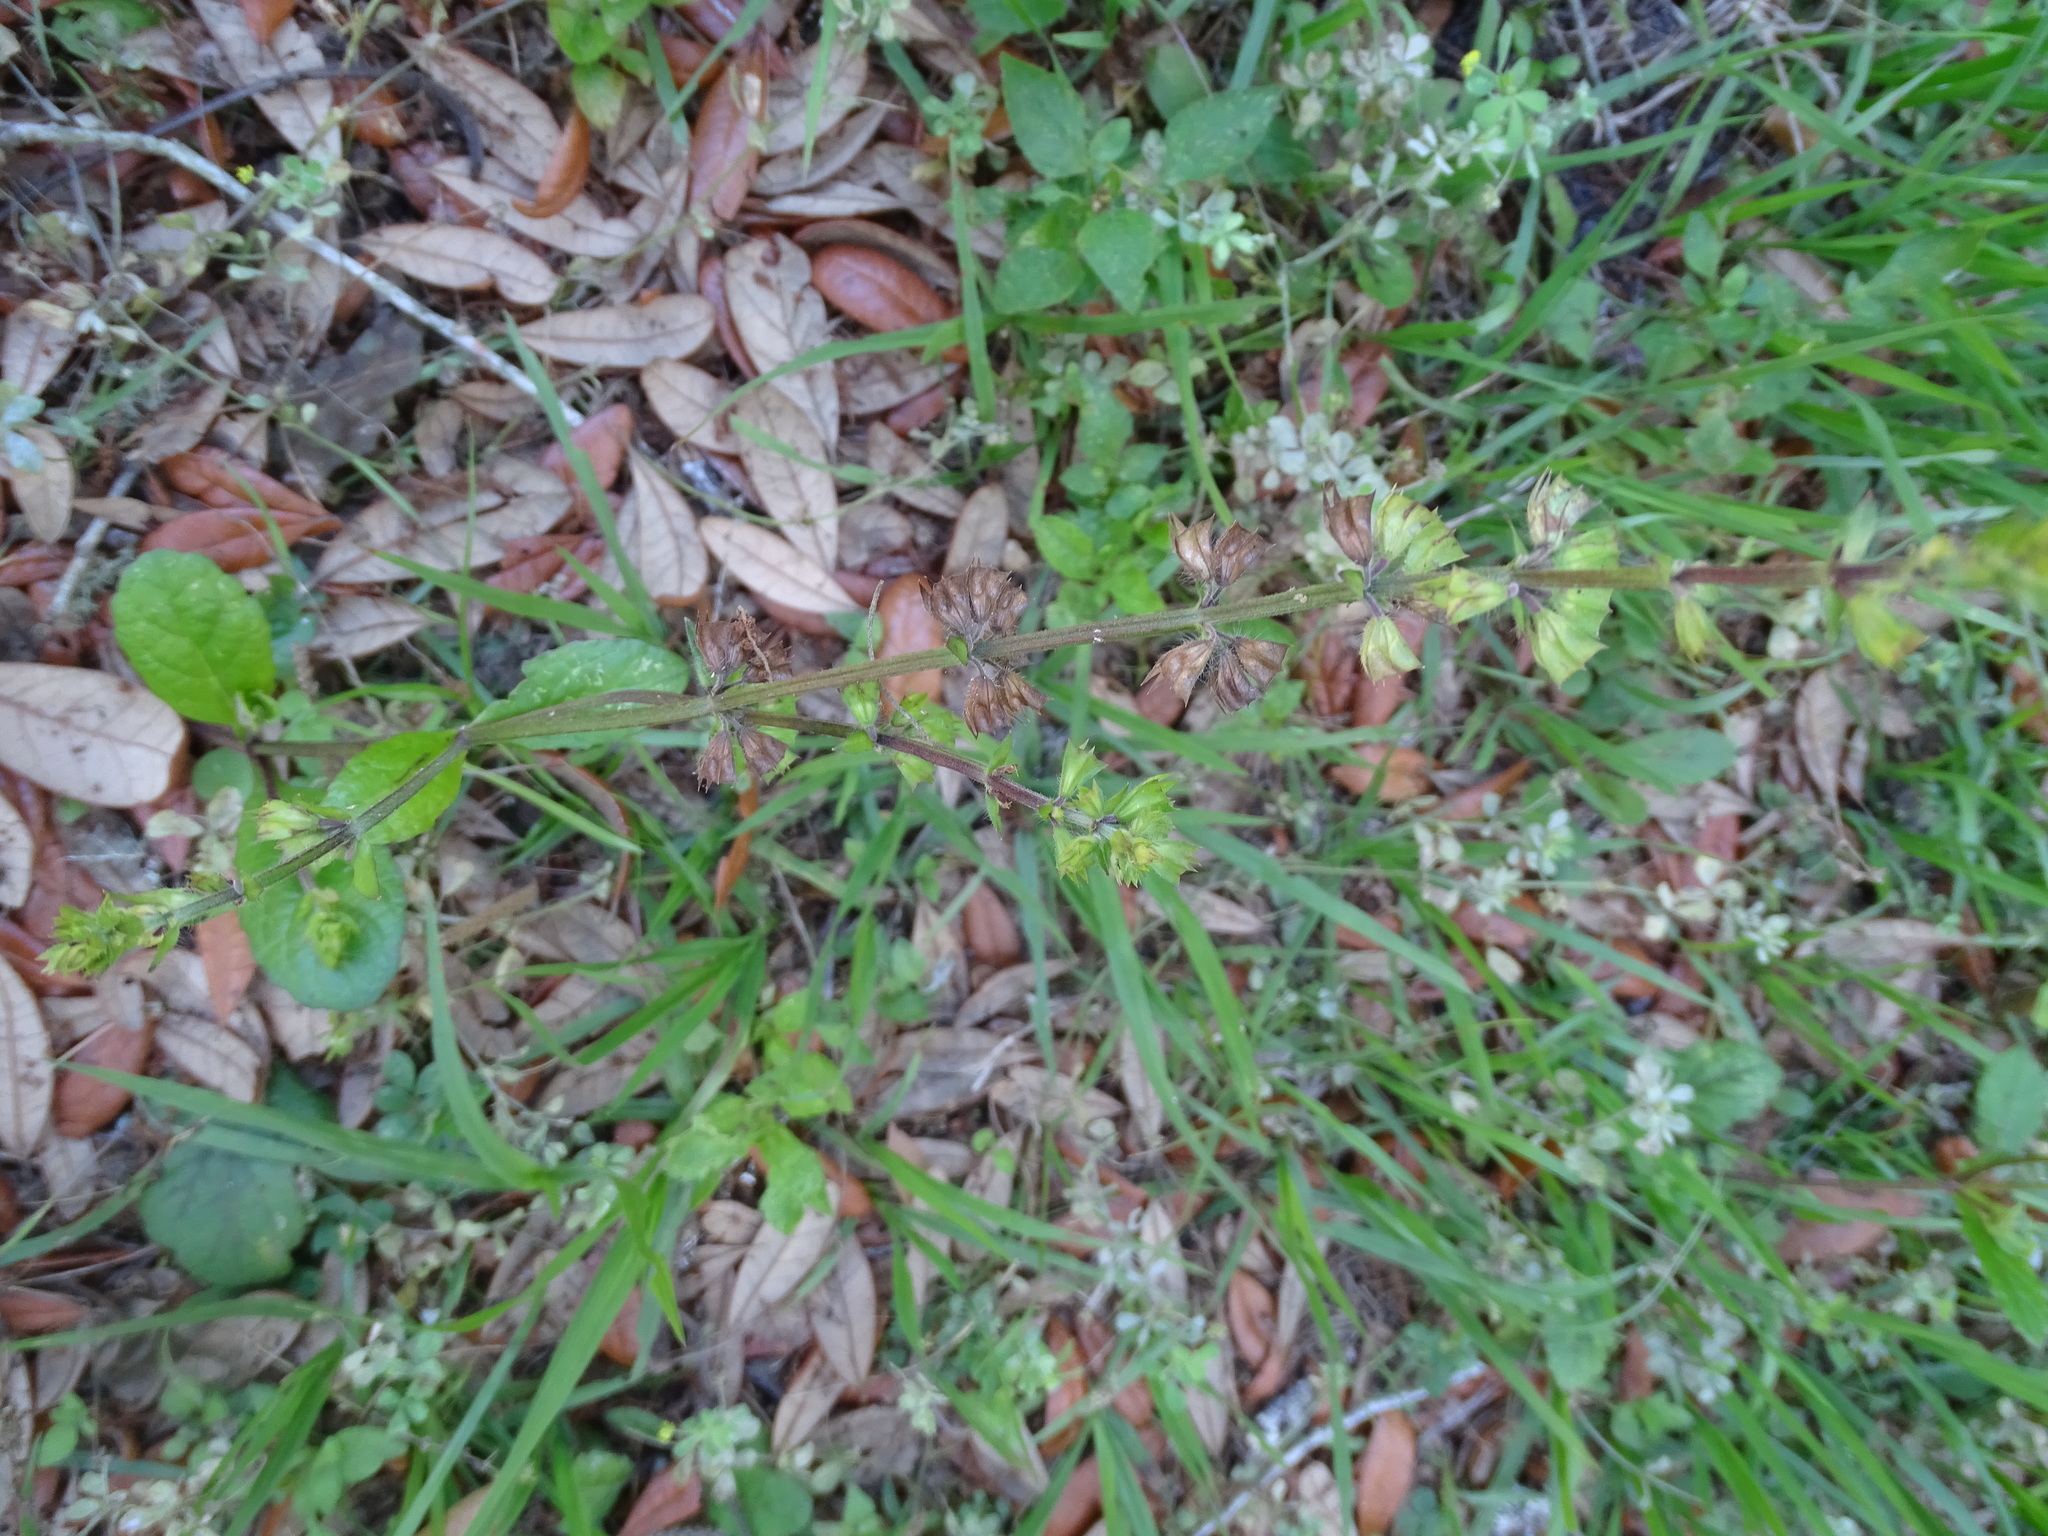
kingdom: Plantae
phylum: Tracheophyta
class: Magnoliopsida
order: Lamiales
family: Lamiaceae
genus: Salvia
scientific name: Salvia lyrata
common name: Cancerweed
